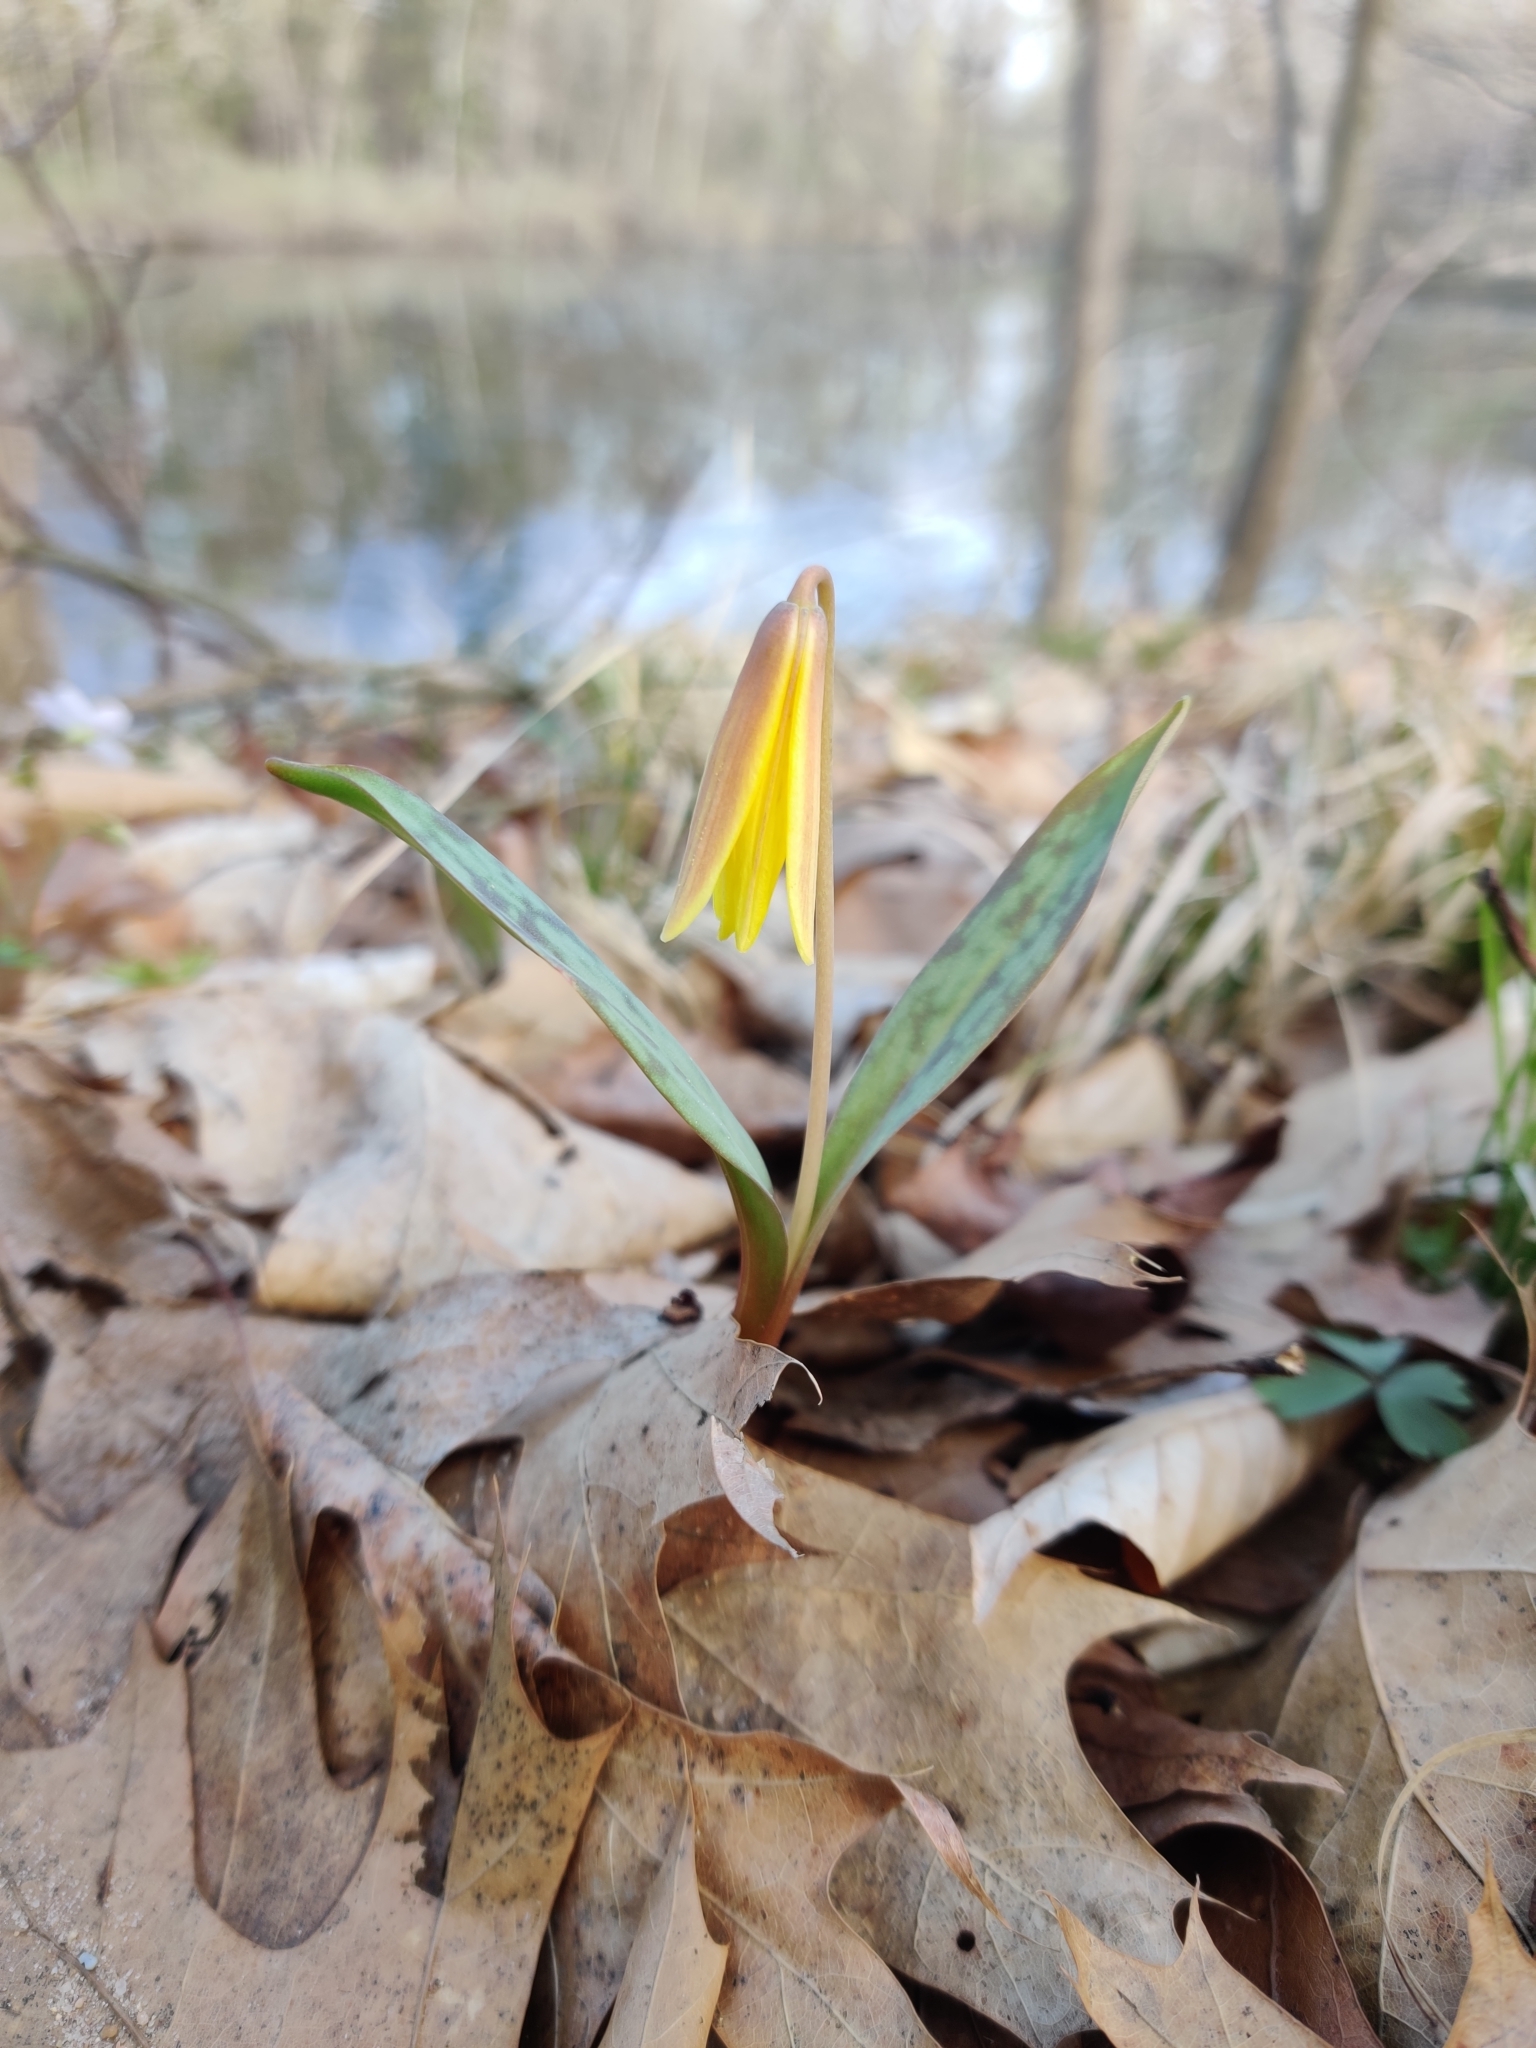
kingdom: Plantae
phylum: Tracheophyta
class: Liliopsida
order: Liliales
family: Liliaceae
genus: Erythronium
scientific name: Erythronium americanum
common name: Yellow adder's-tongue
